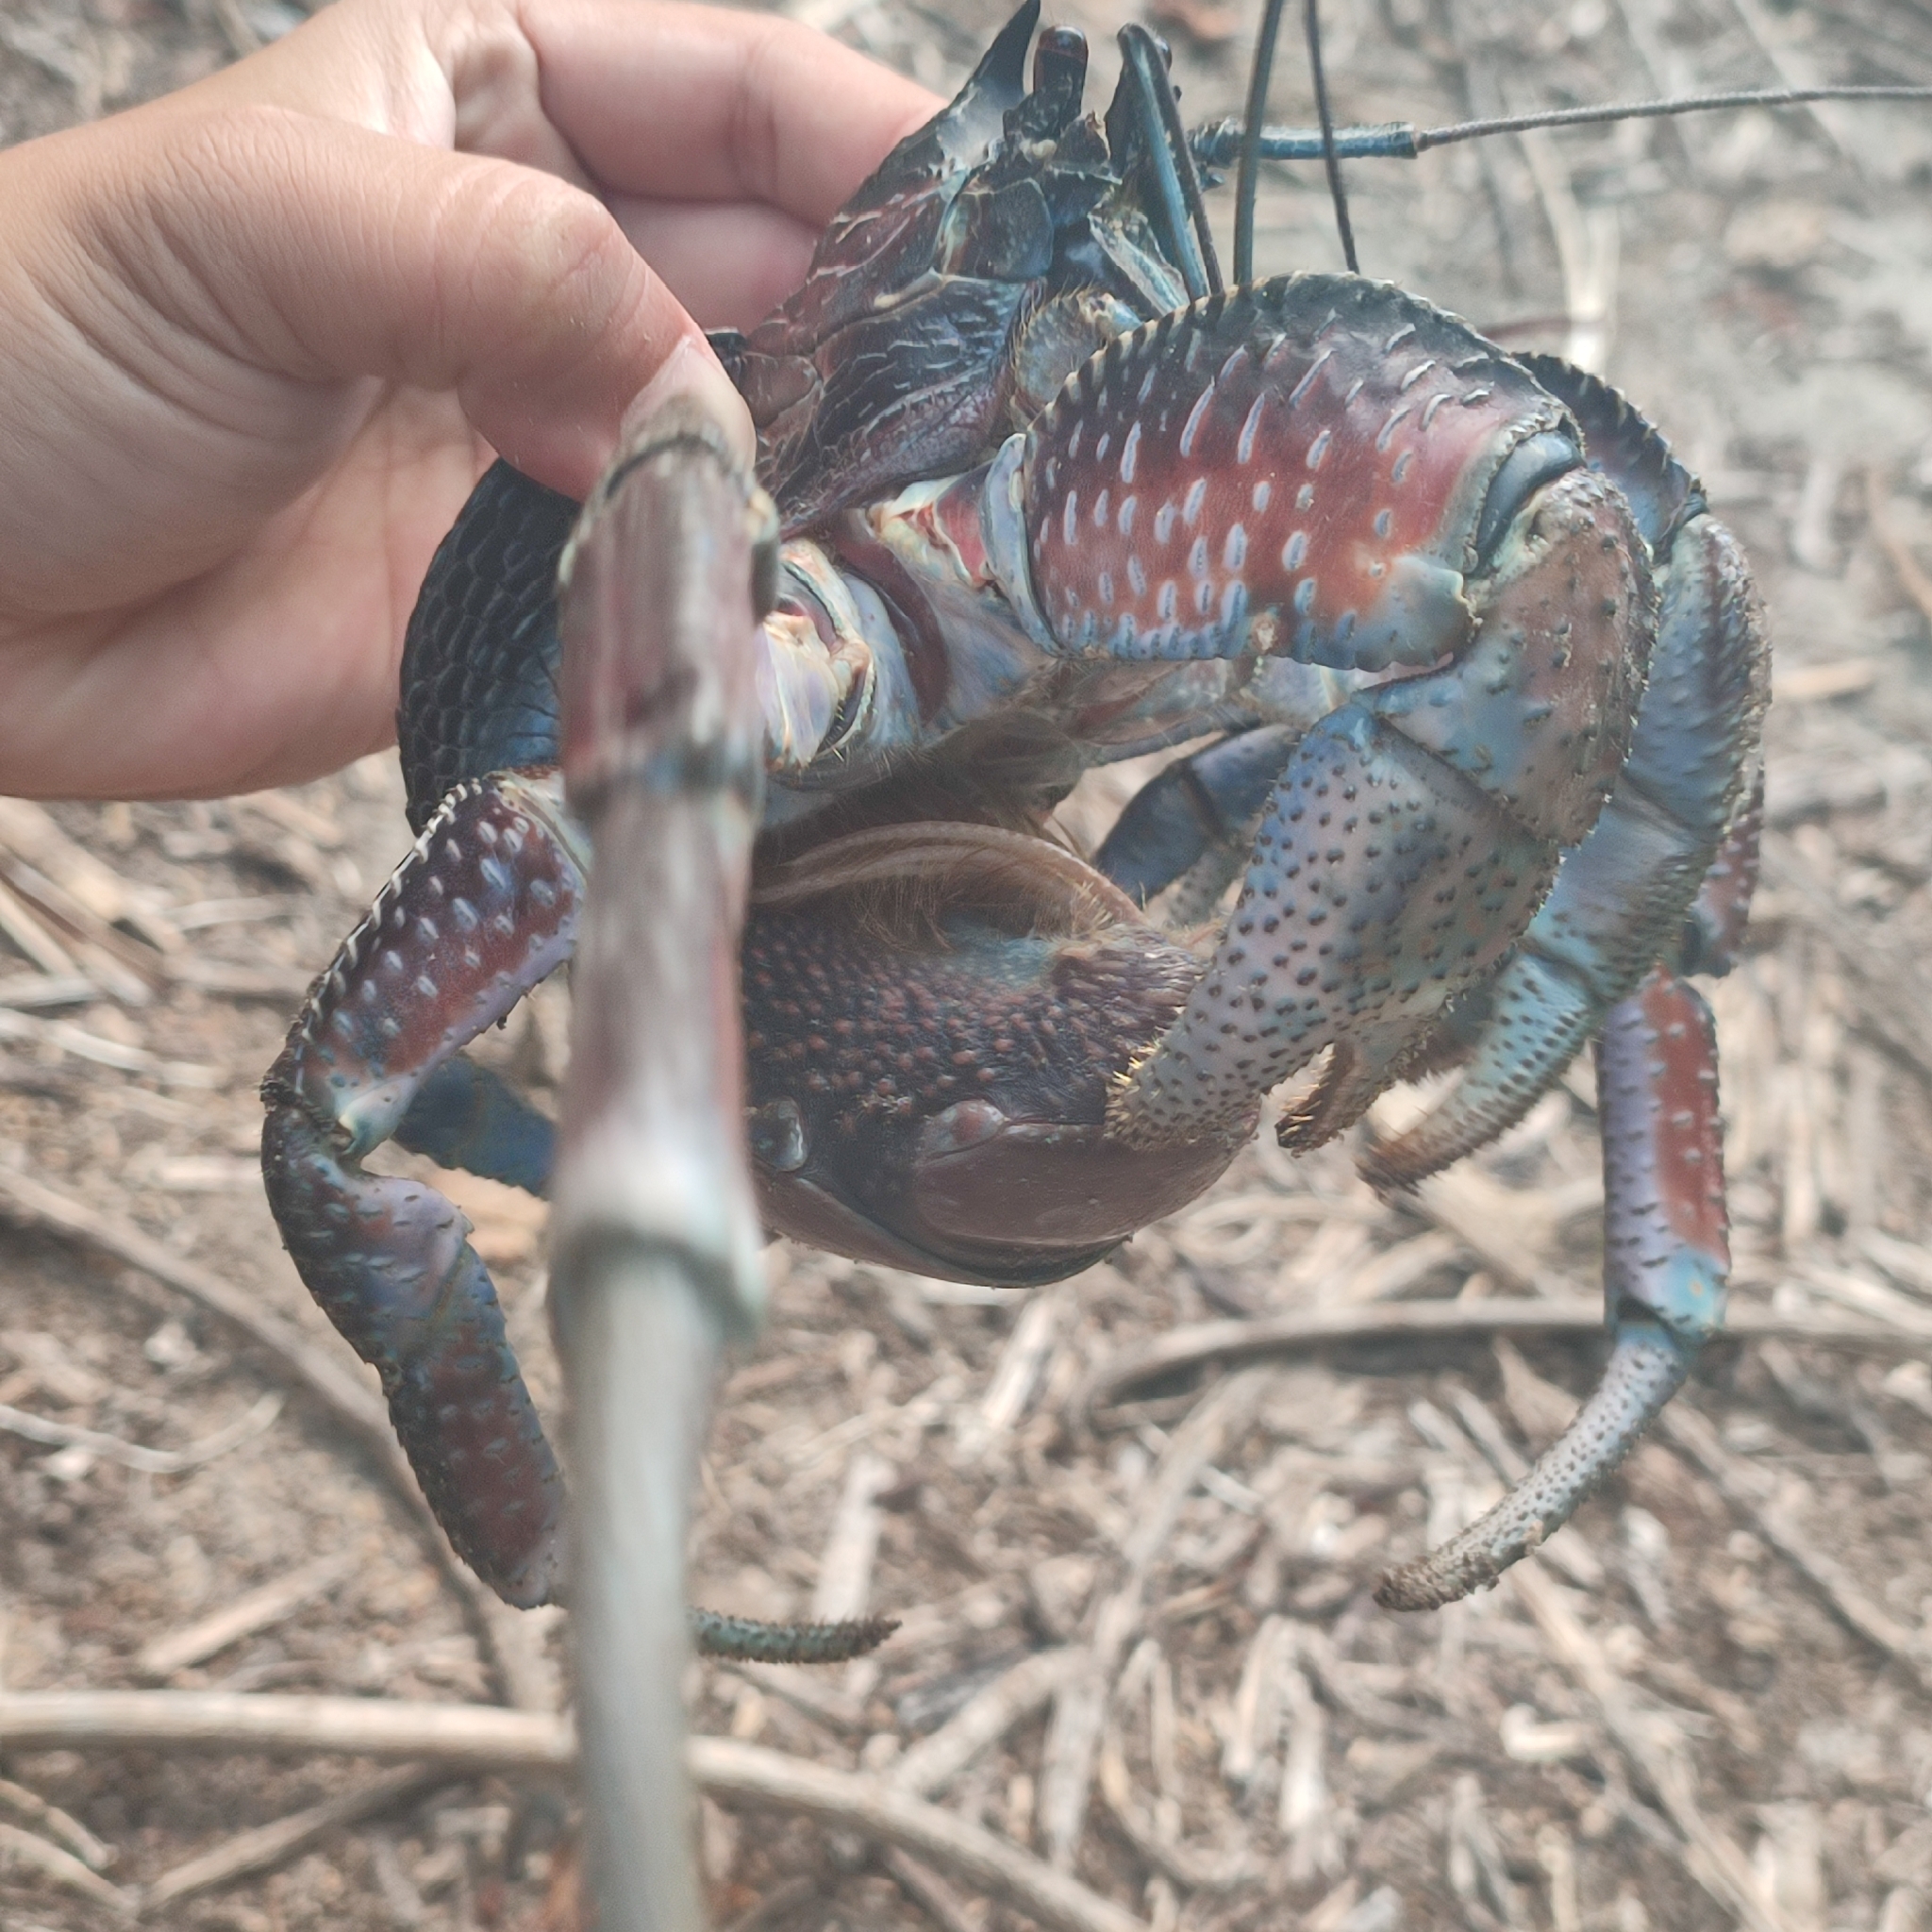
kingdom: Animalia
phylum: Arthropoda
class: Malacostraca
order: Decapoda
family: Coenobitidae
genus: Birgus
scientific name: Birgus latro
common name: Coconut crab
